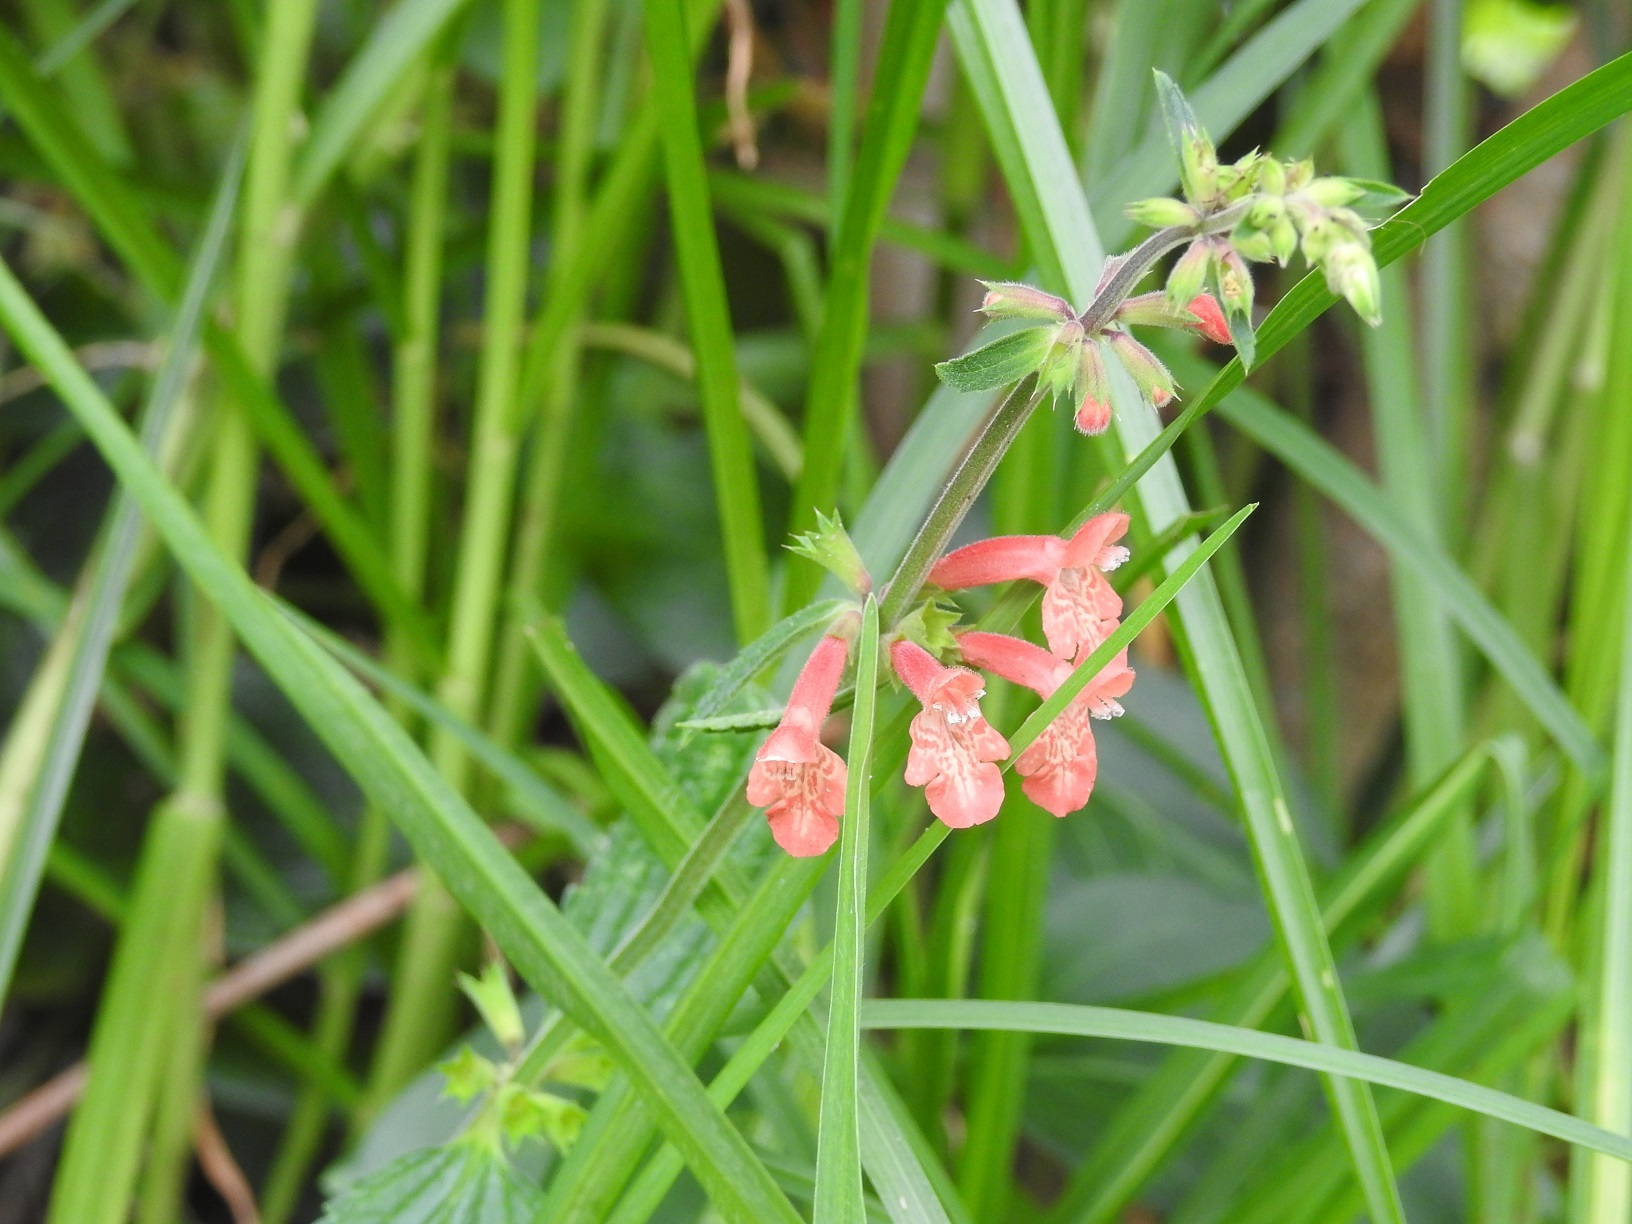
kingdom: Plantae
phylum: Tracheophyta
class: Magnoliopsida
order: Lamiales
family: Lamiaceae
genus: Stachys
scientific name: Stachys coccinea
